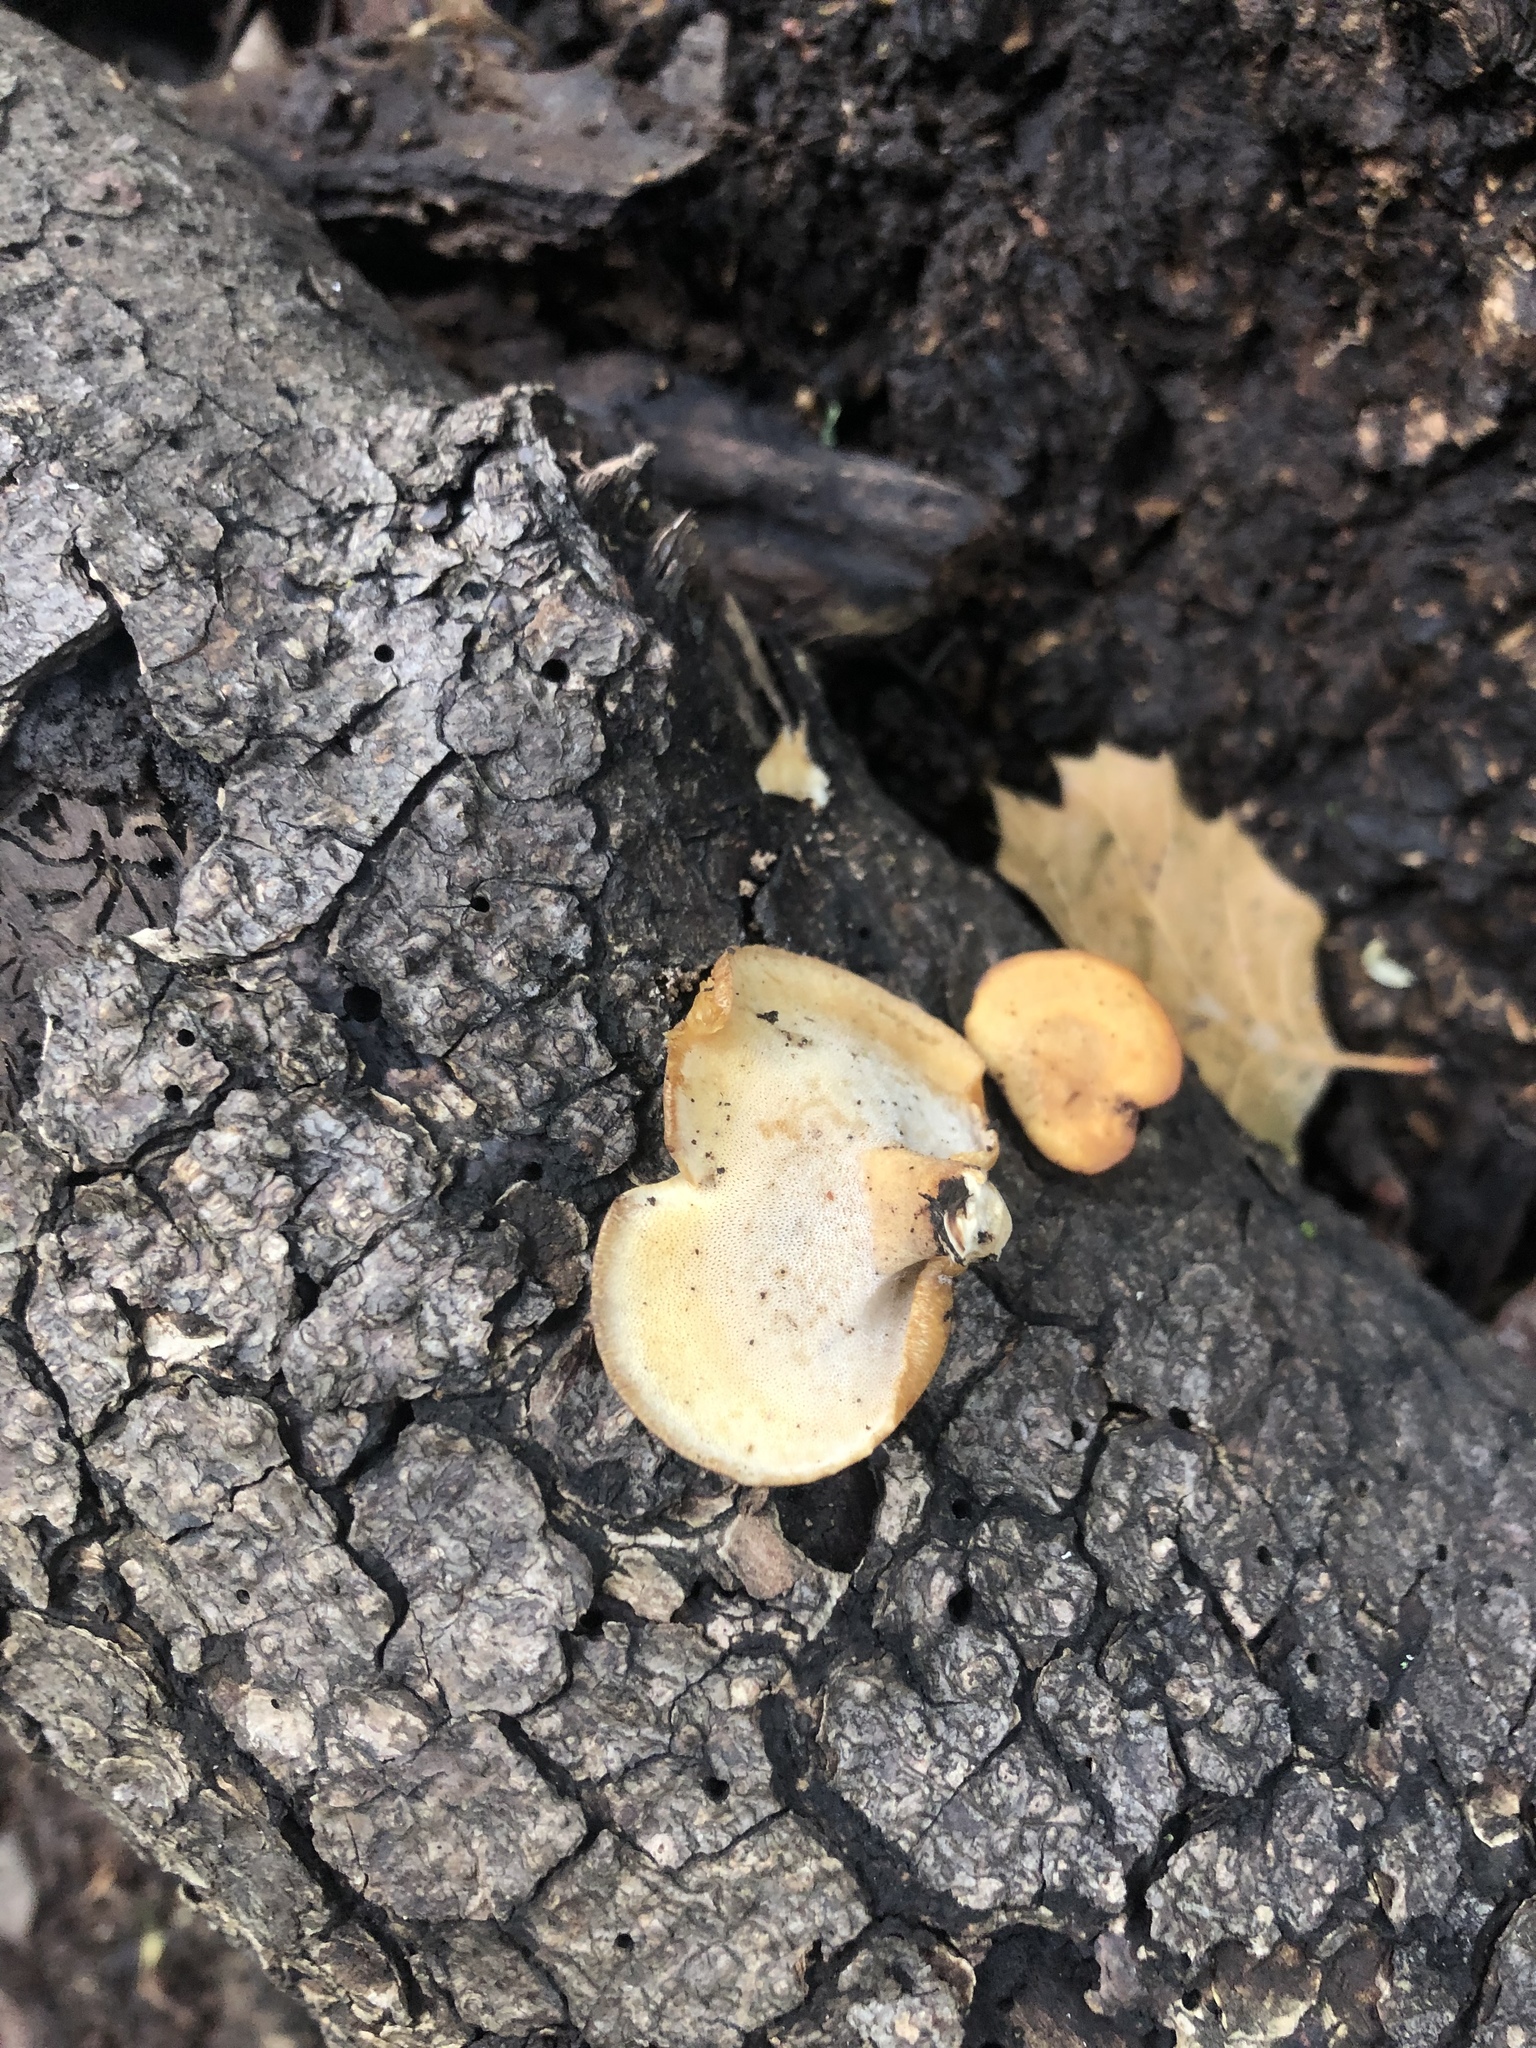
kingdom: Fungi
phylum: Basidiomycota
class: Agaricomycetes
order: Polyporales
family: Polyporaceae
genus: Cerioporus
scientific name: Cerioporus leptocephalus
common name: Blackfoot polypore
